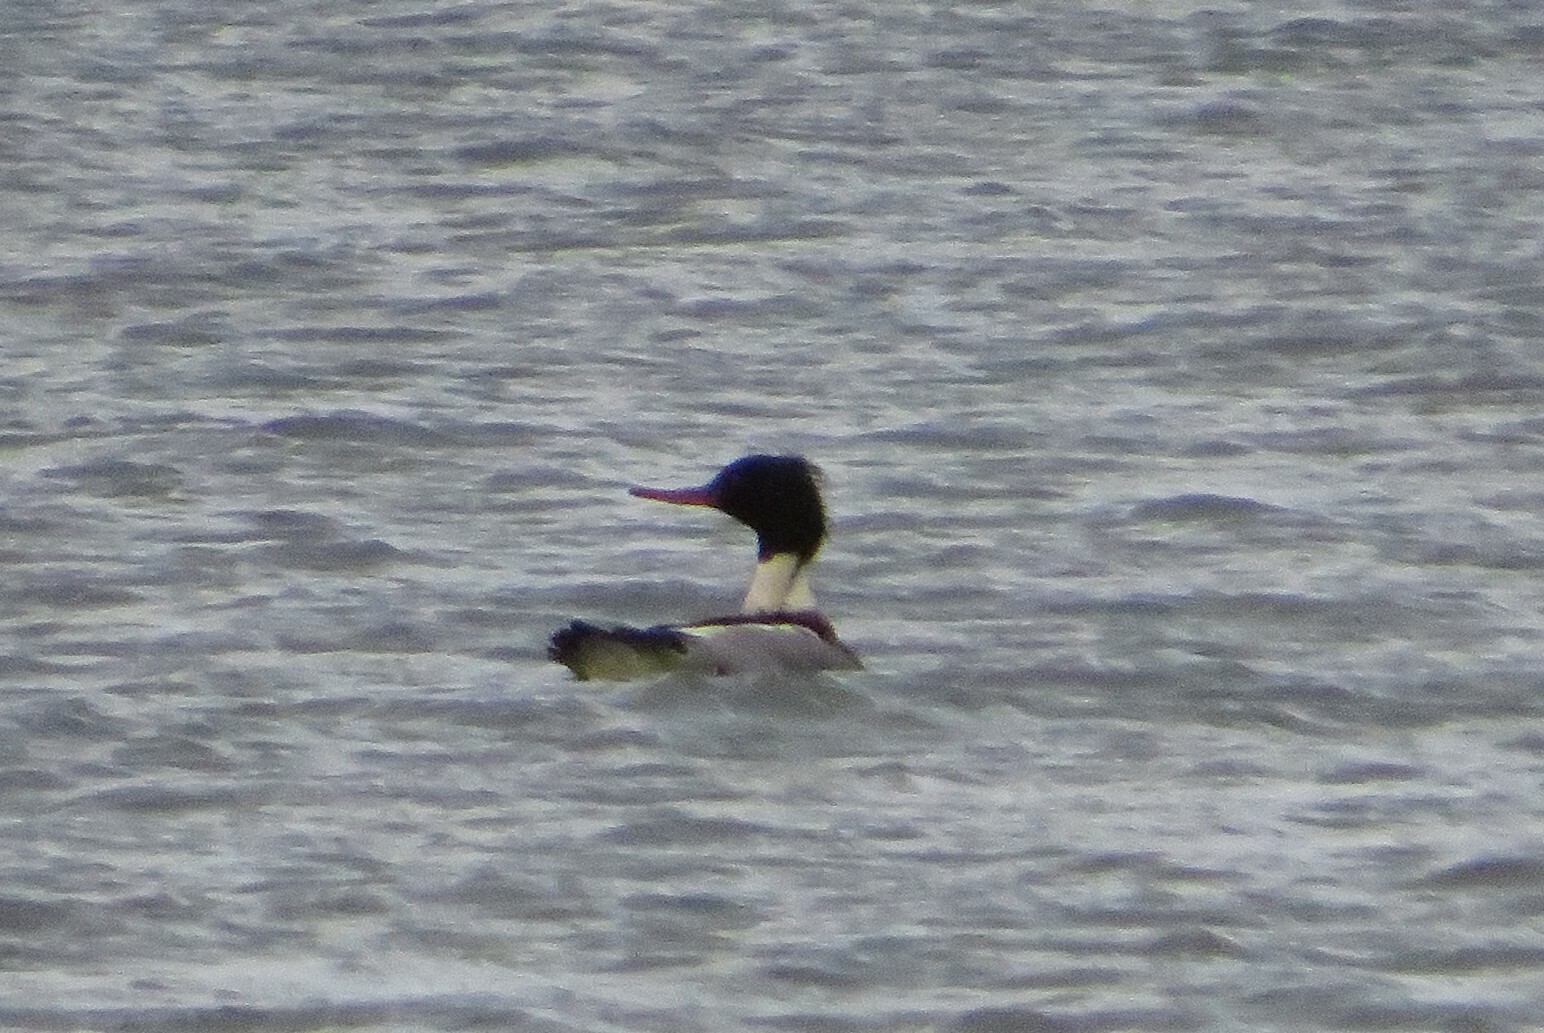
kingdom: Animalia
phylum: Chordata
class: Aves
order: Anseriformes
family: Anatidae
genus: Mergus
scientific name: Mergus serrator
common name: Red-breasted merganser
